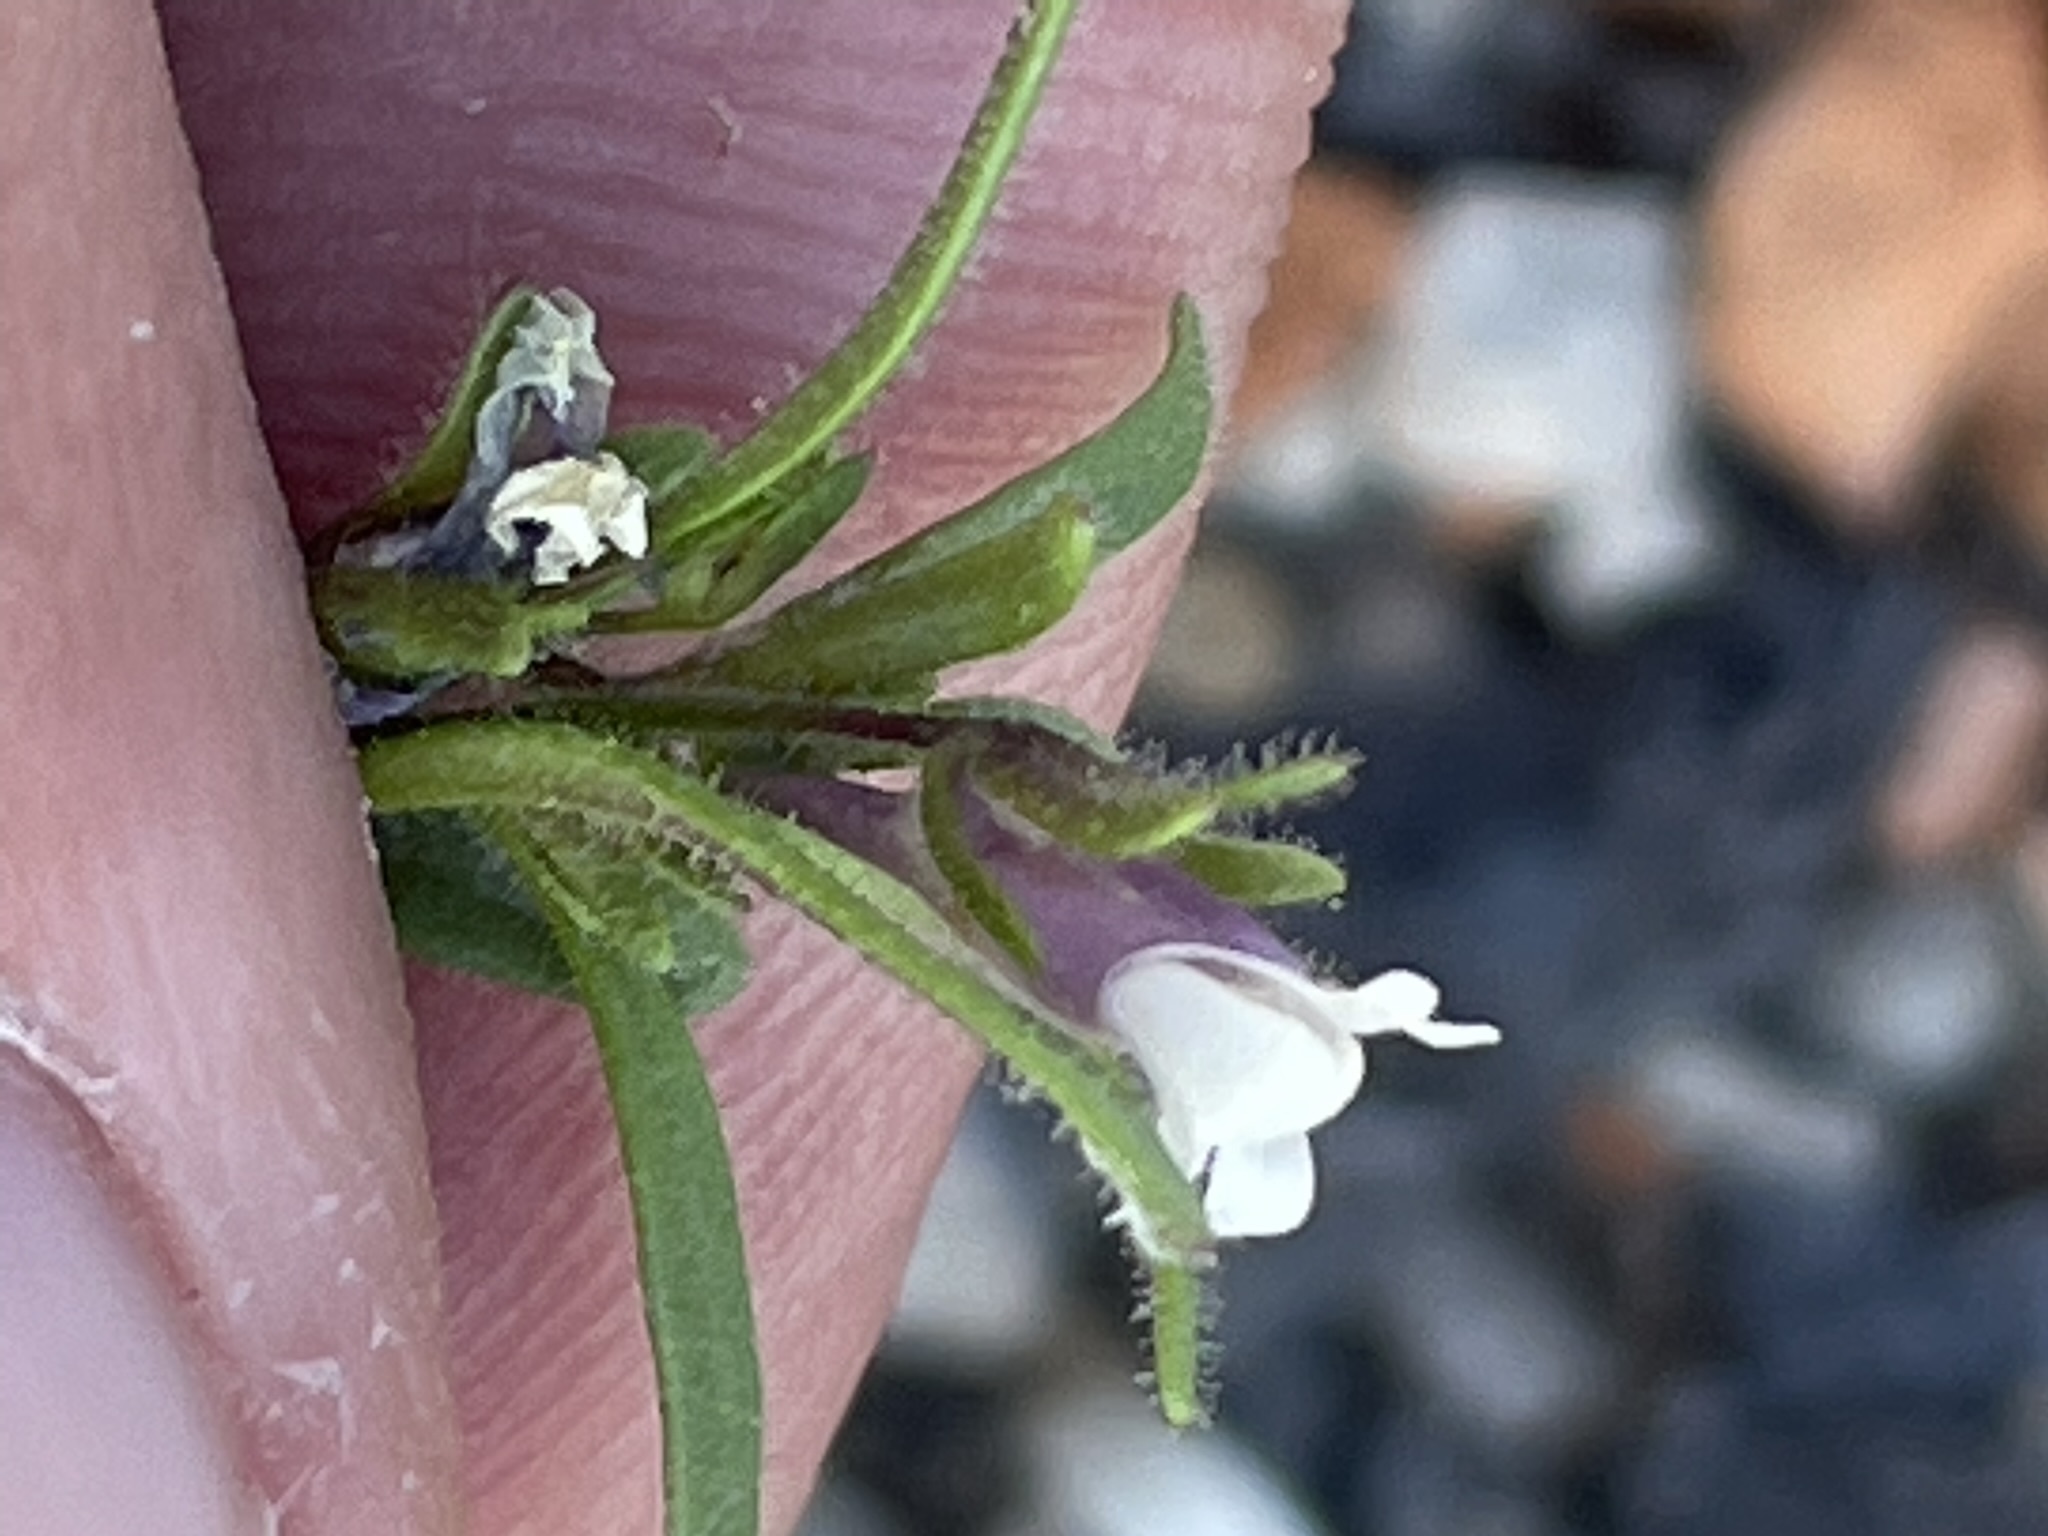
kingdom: Plantae
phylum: Tracheophyta
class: Magnoliopsida
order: Lamiales
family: Plantaginaceae
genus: Chaenorhinum
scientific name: Chaenorhinum minus
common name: Dwarf snapdragon
